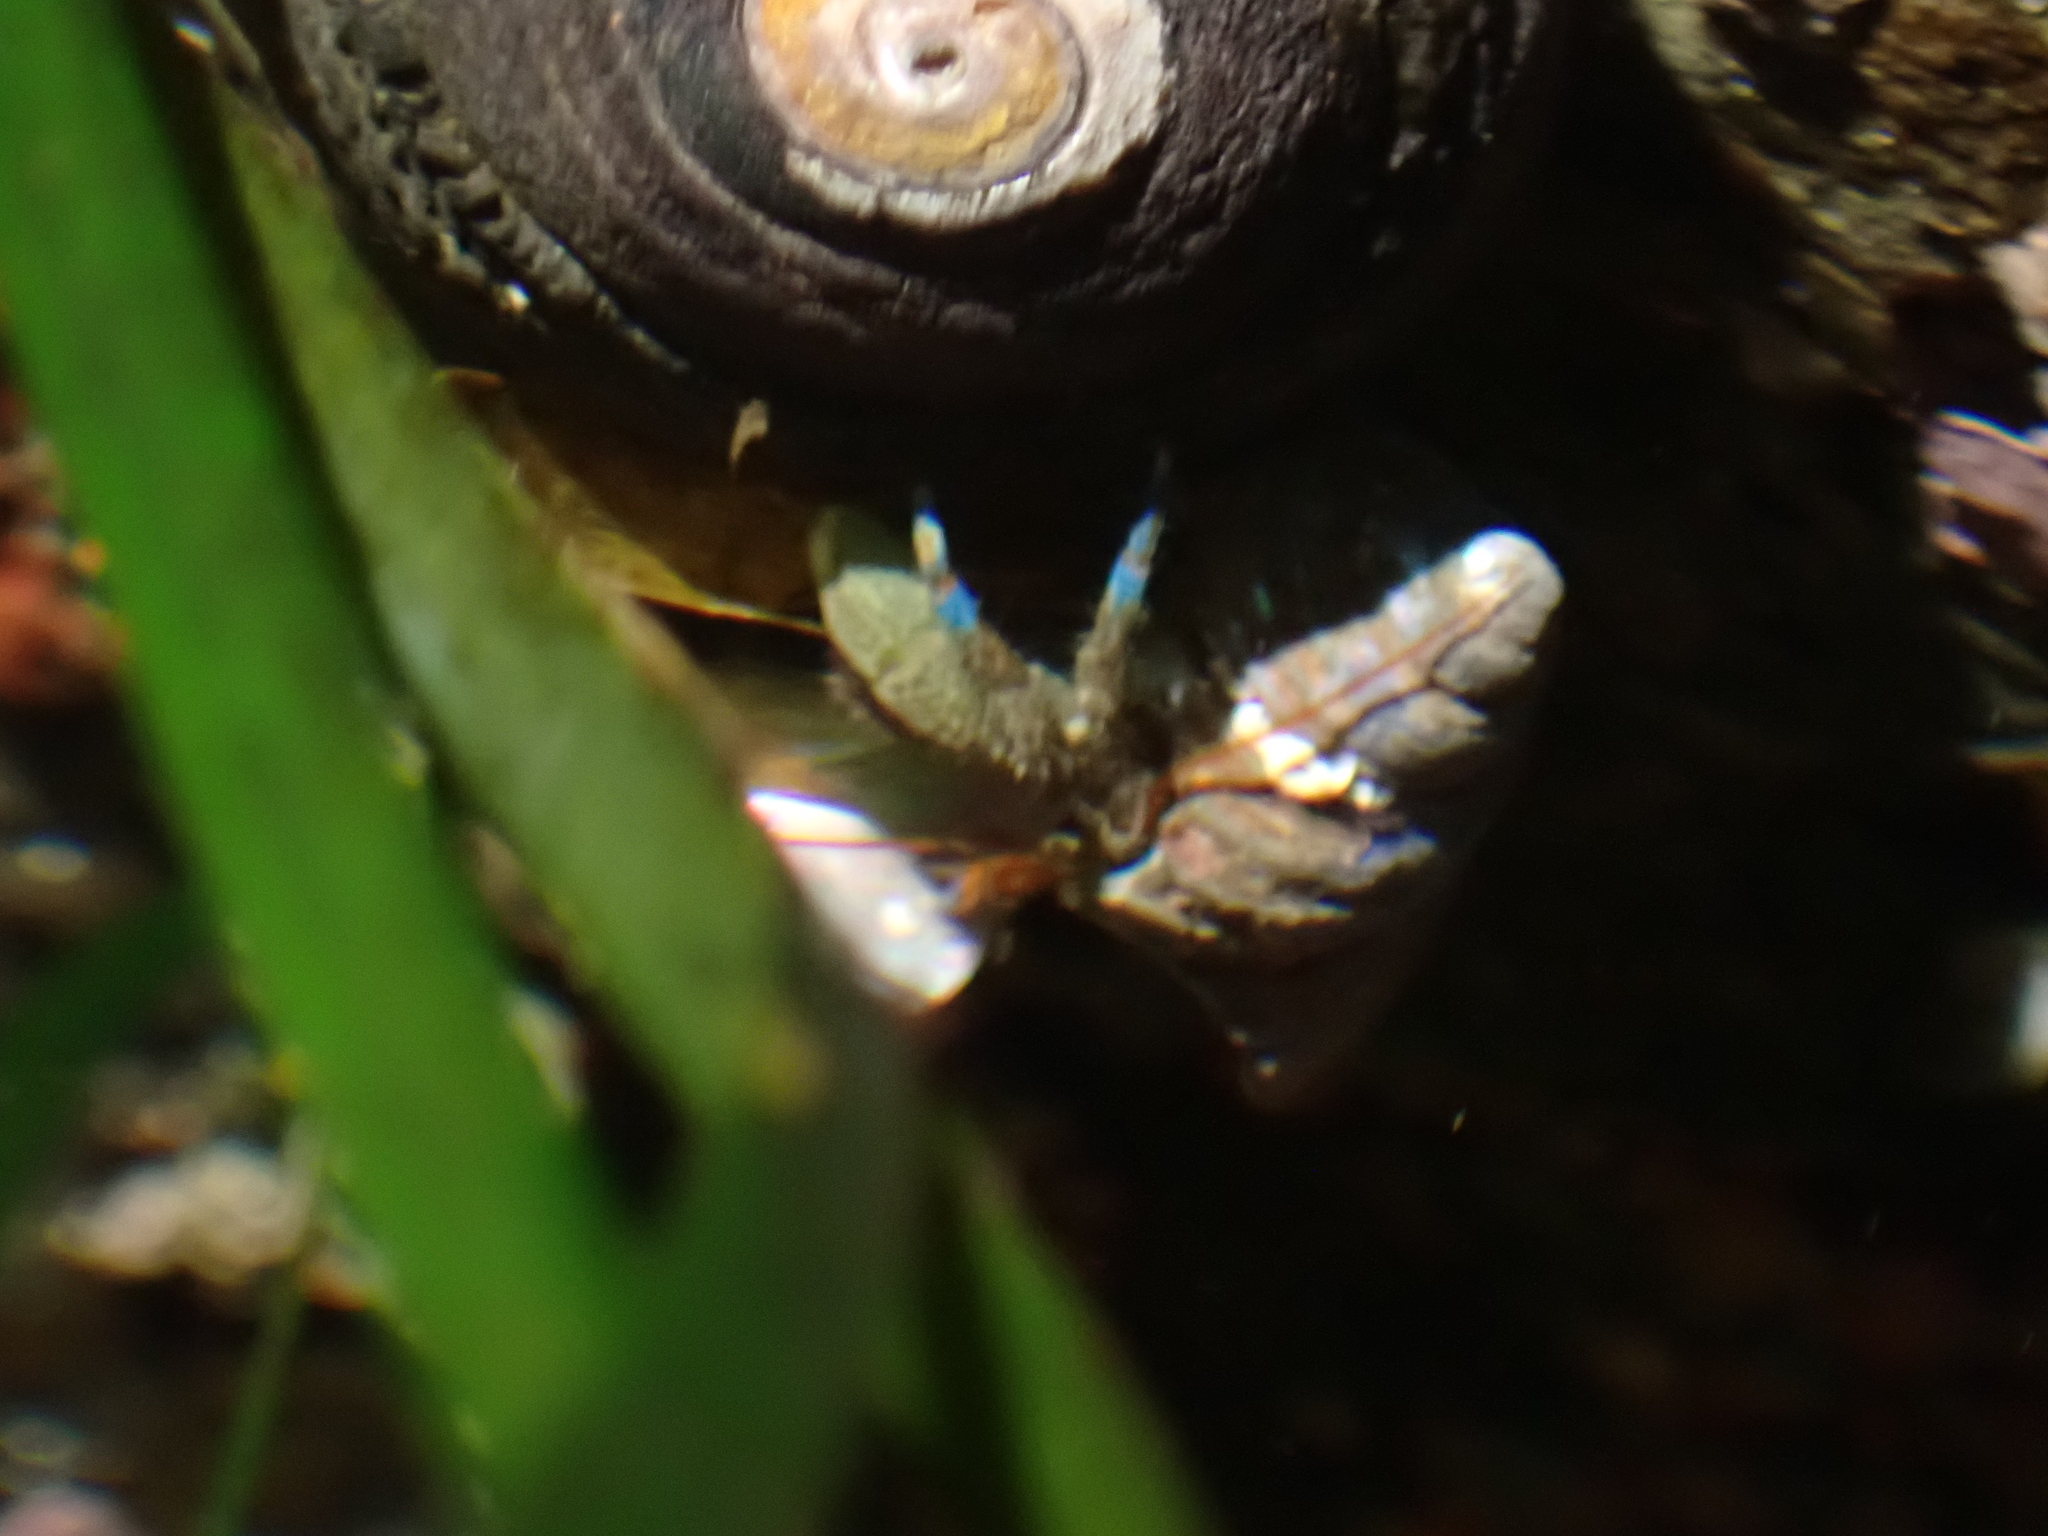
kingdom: Animalia
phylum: Arthropoda
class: Malacostraca
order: Decapoda
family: Paguridae
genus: Pagurus
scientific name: Pagurus samuelis
